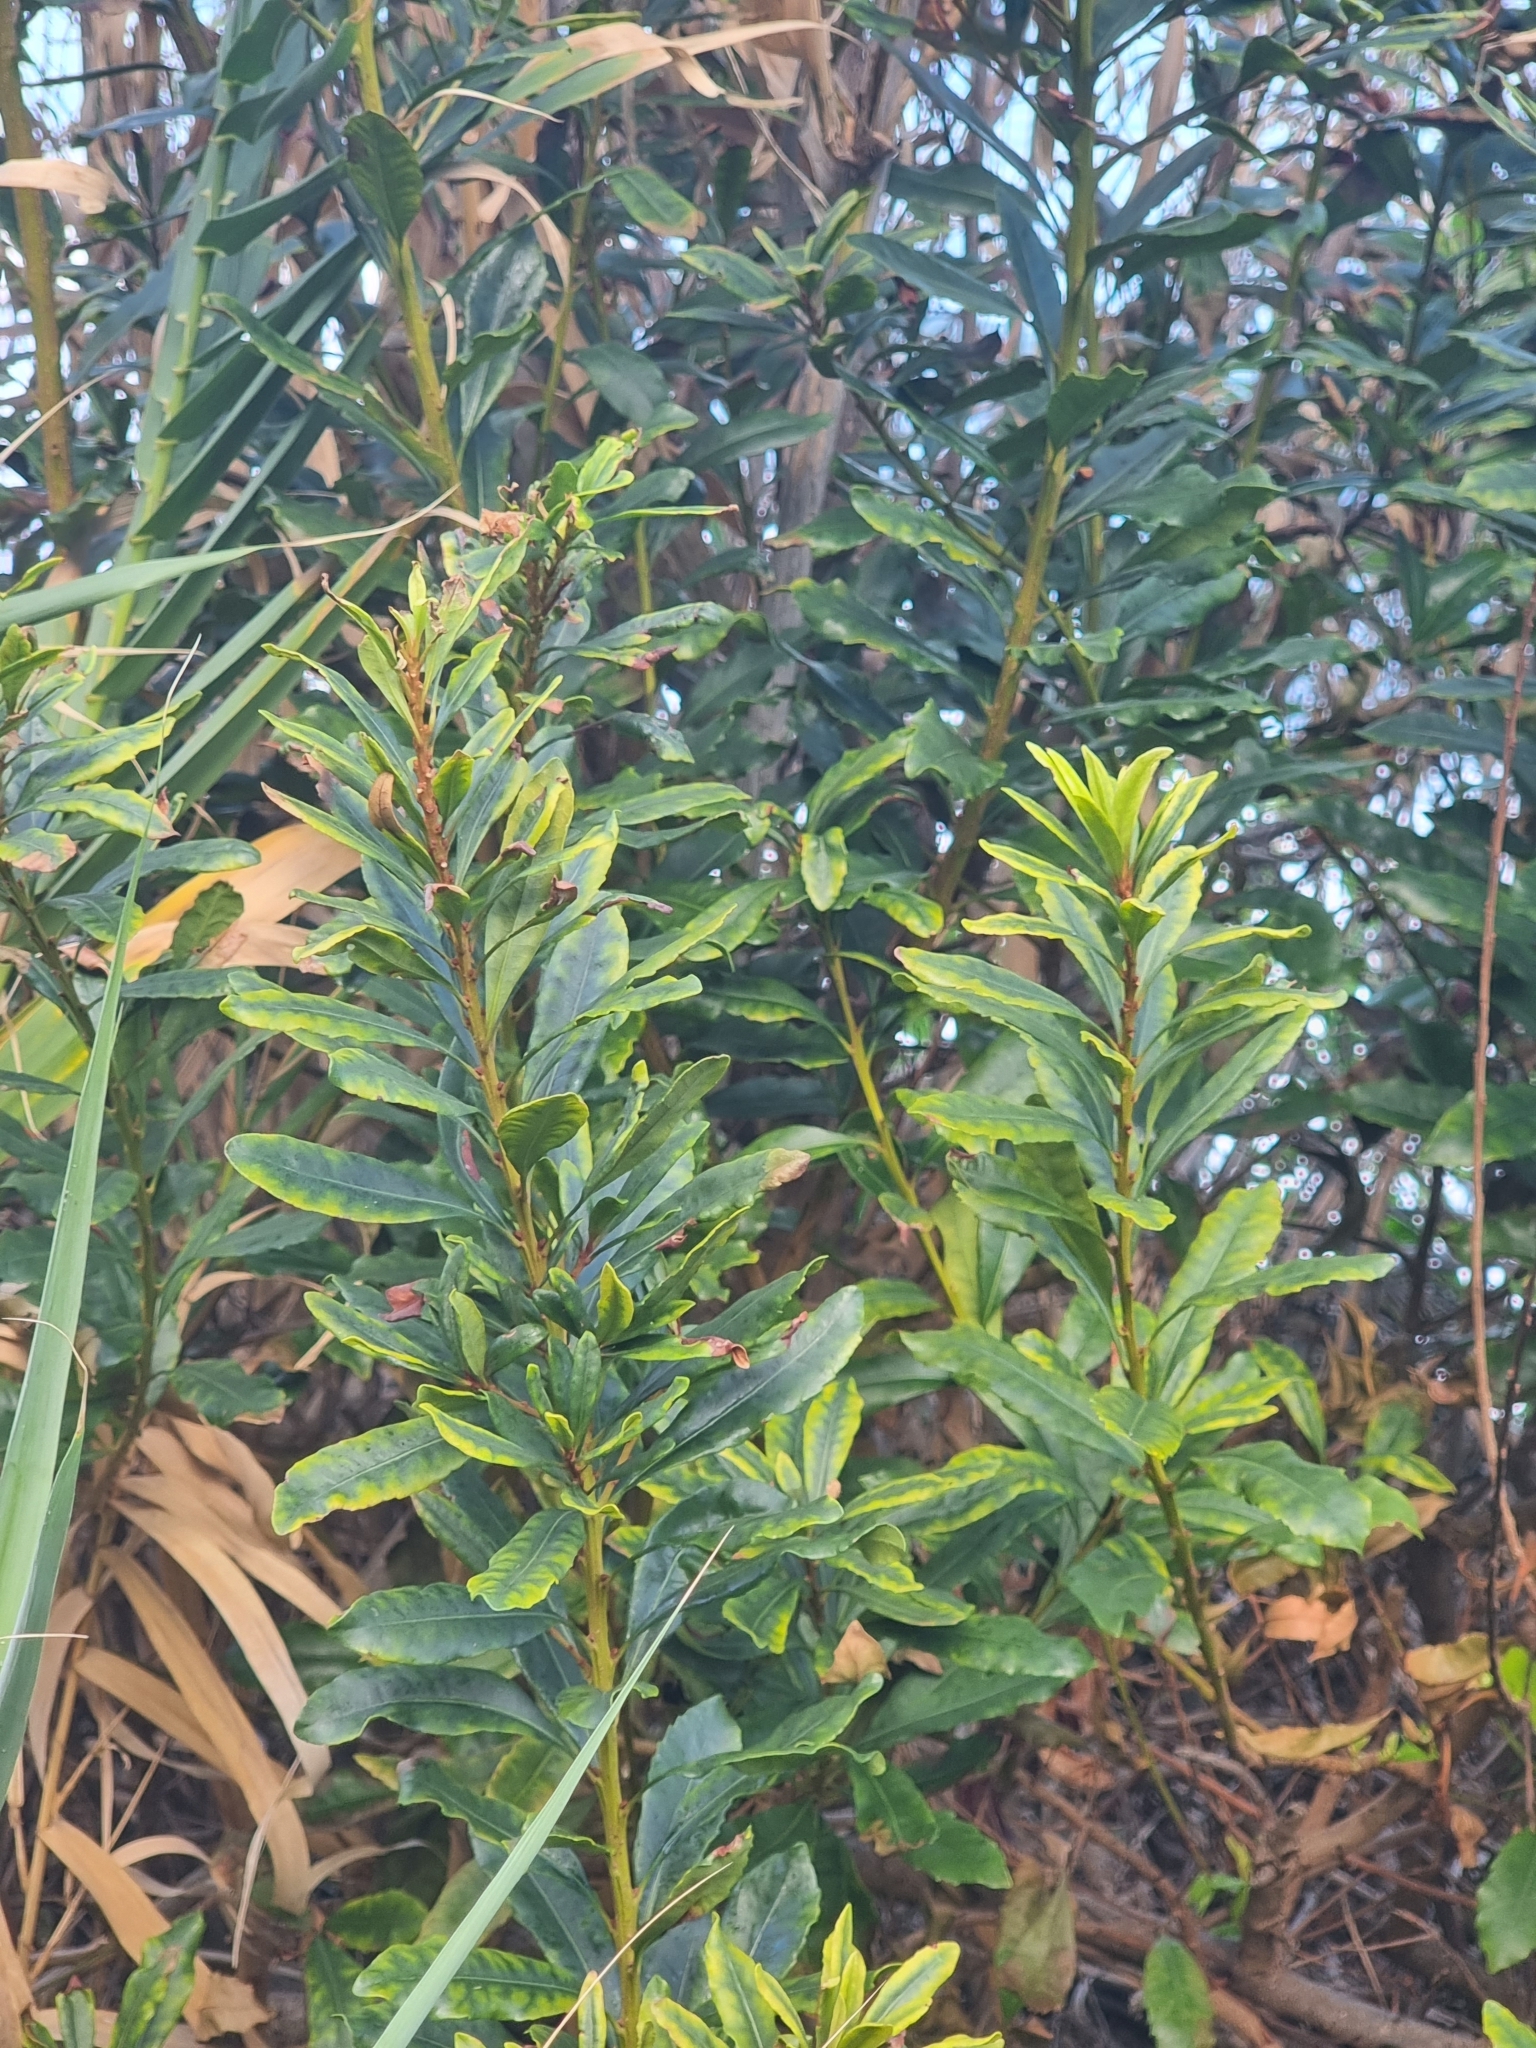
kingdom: Plantae
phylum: Tracheophyta
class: Magnoliopsida
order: Fagales
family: Myricaceae
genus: Morella
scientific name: Morella faya
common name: Firetree
